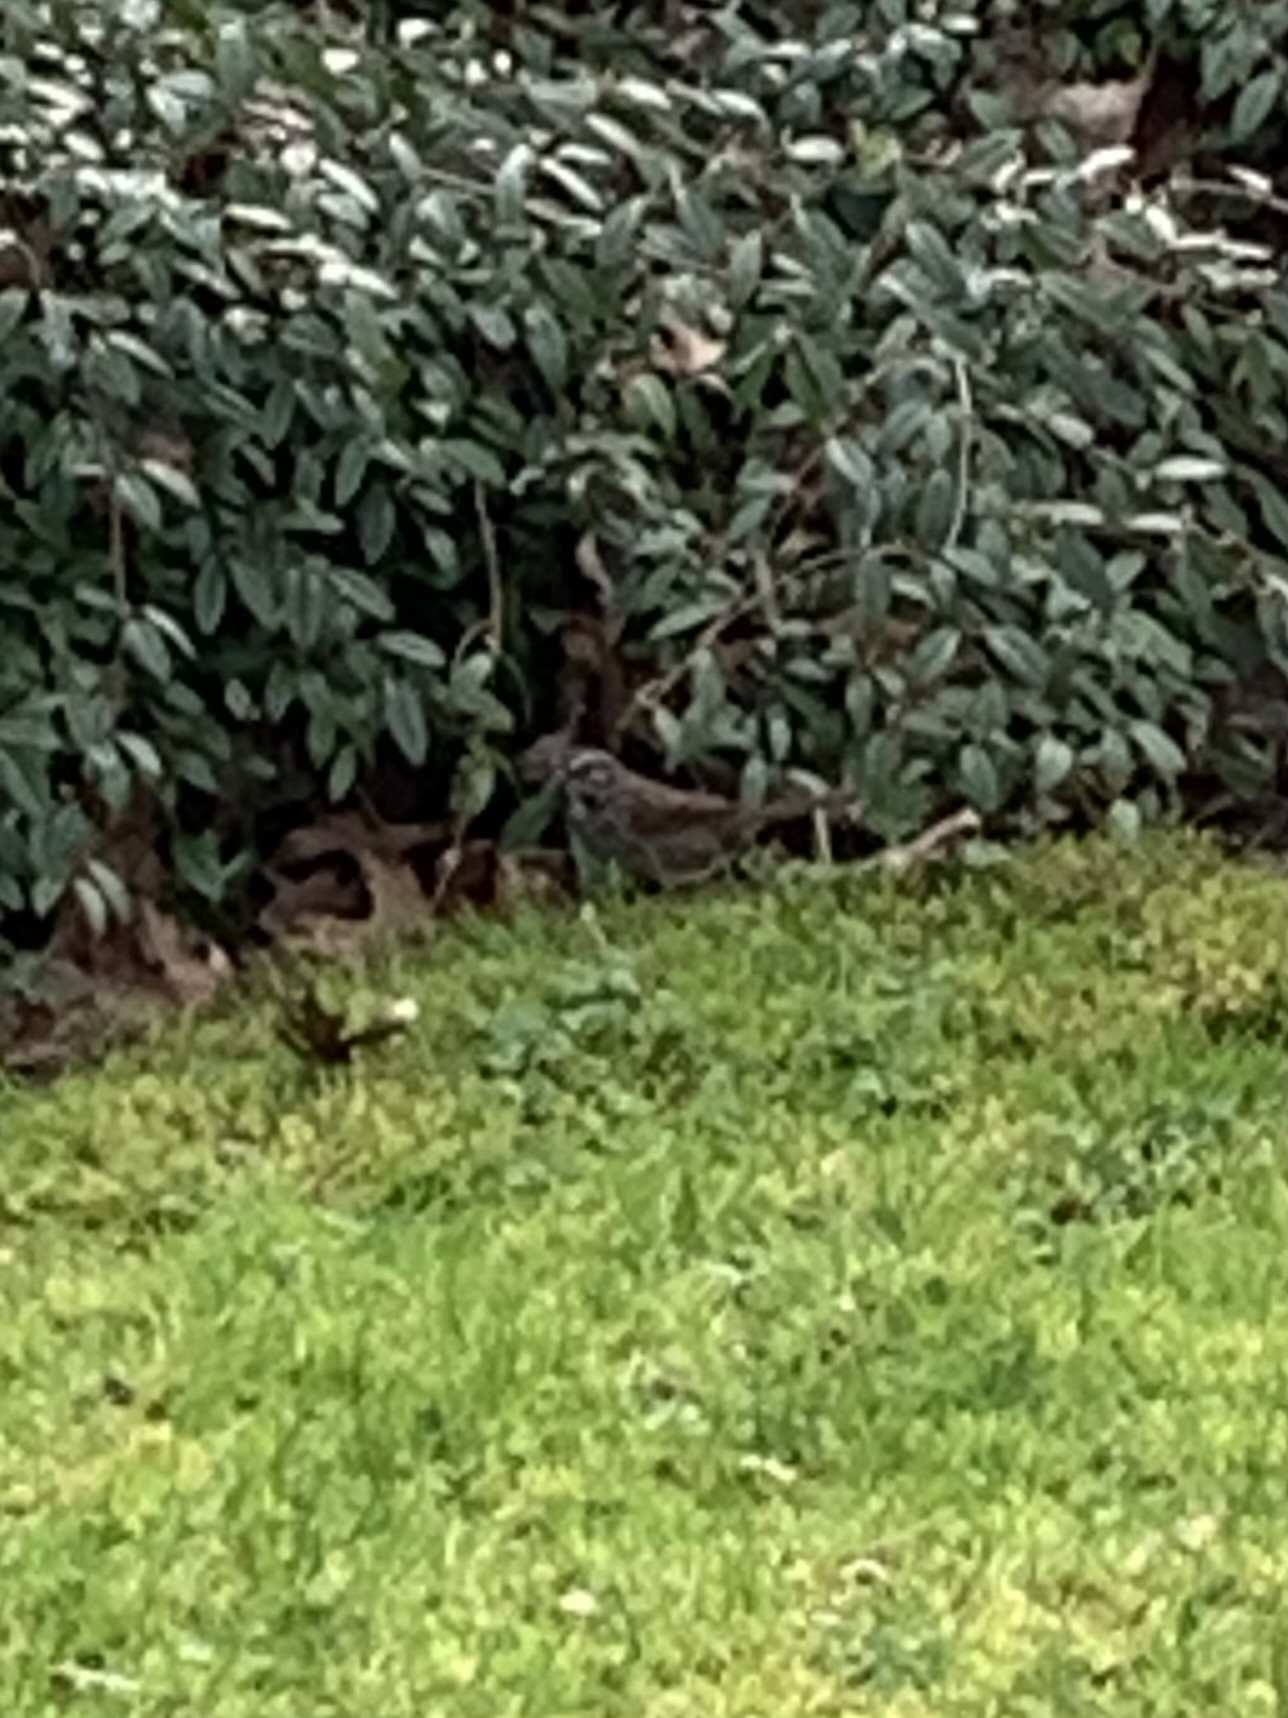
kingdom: Animalia
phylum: Chordata
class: Aves
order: Passeriformes
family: Passerellidae
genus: Melospiza
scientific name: Melospiza melodia
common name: Song sparrow
